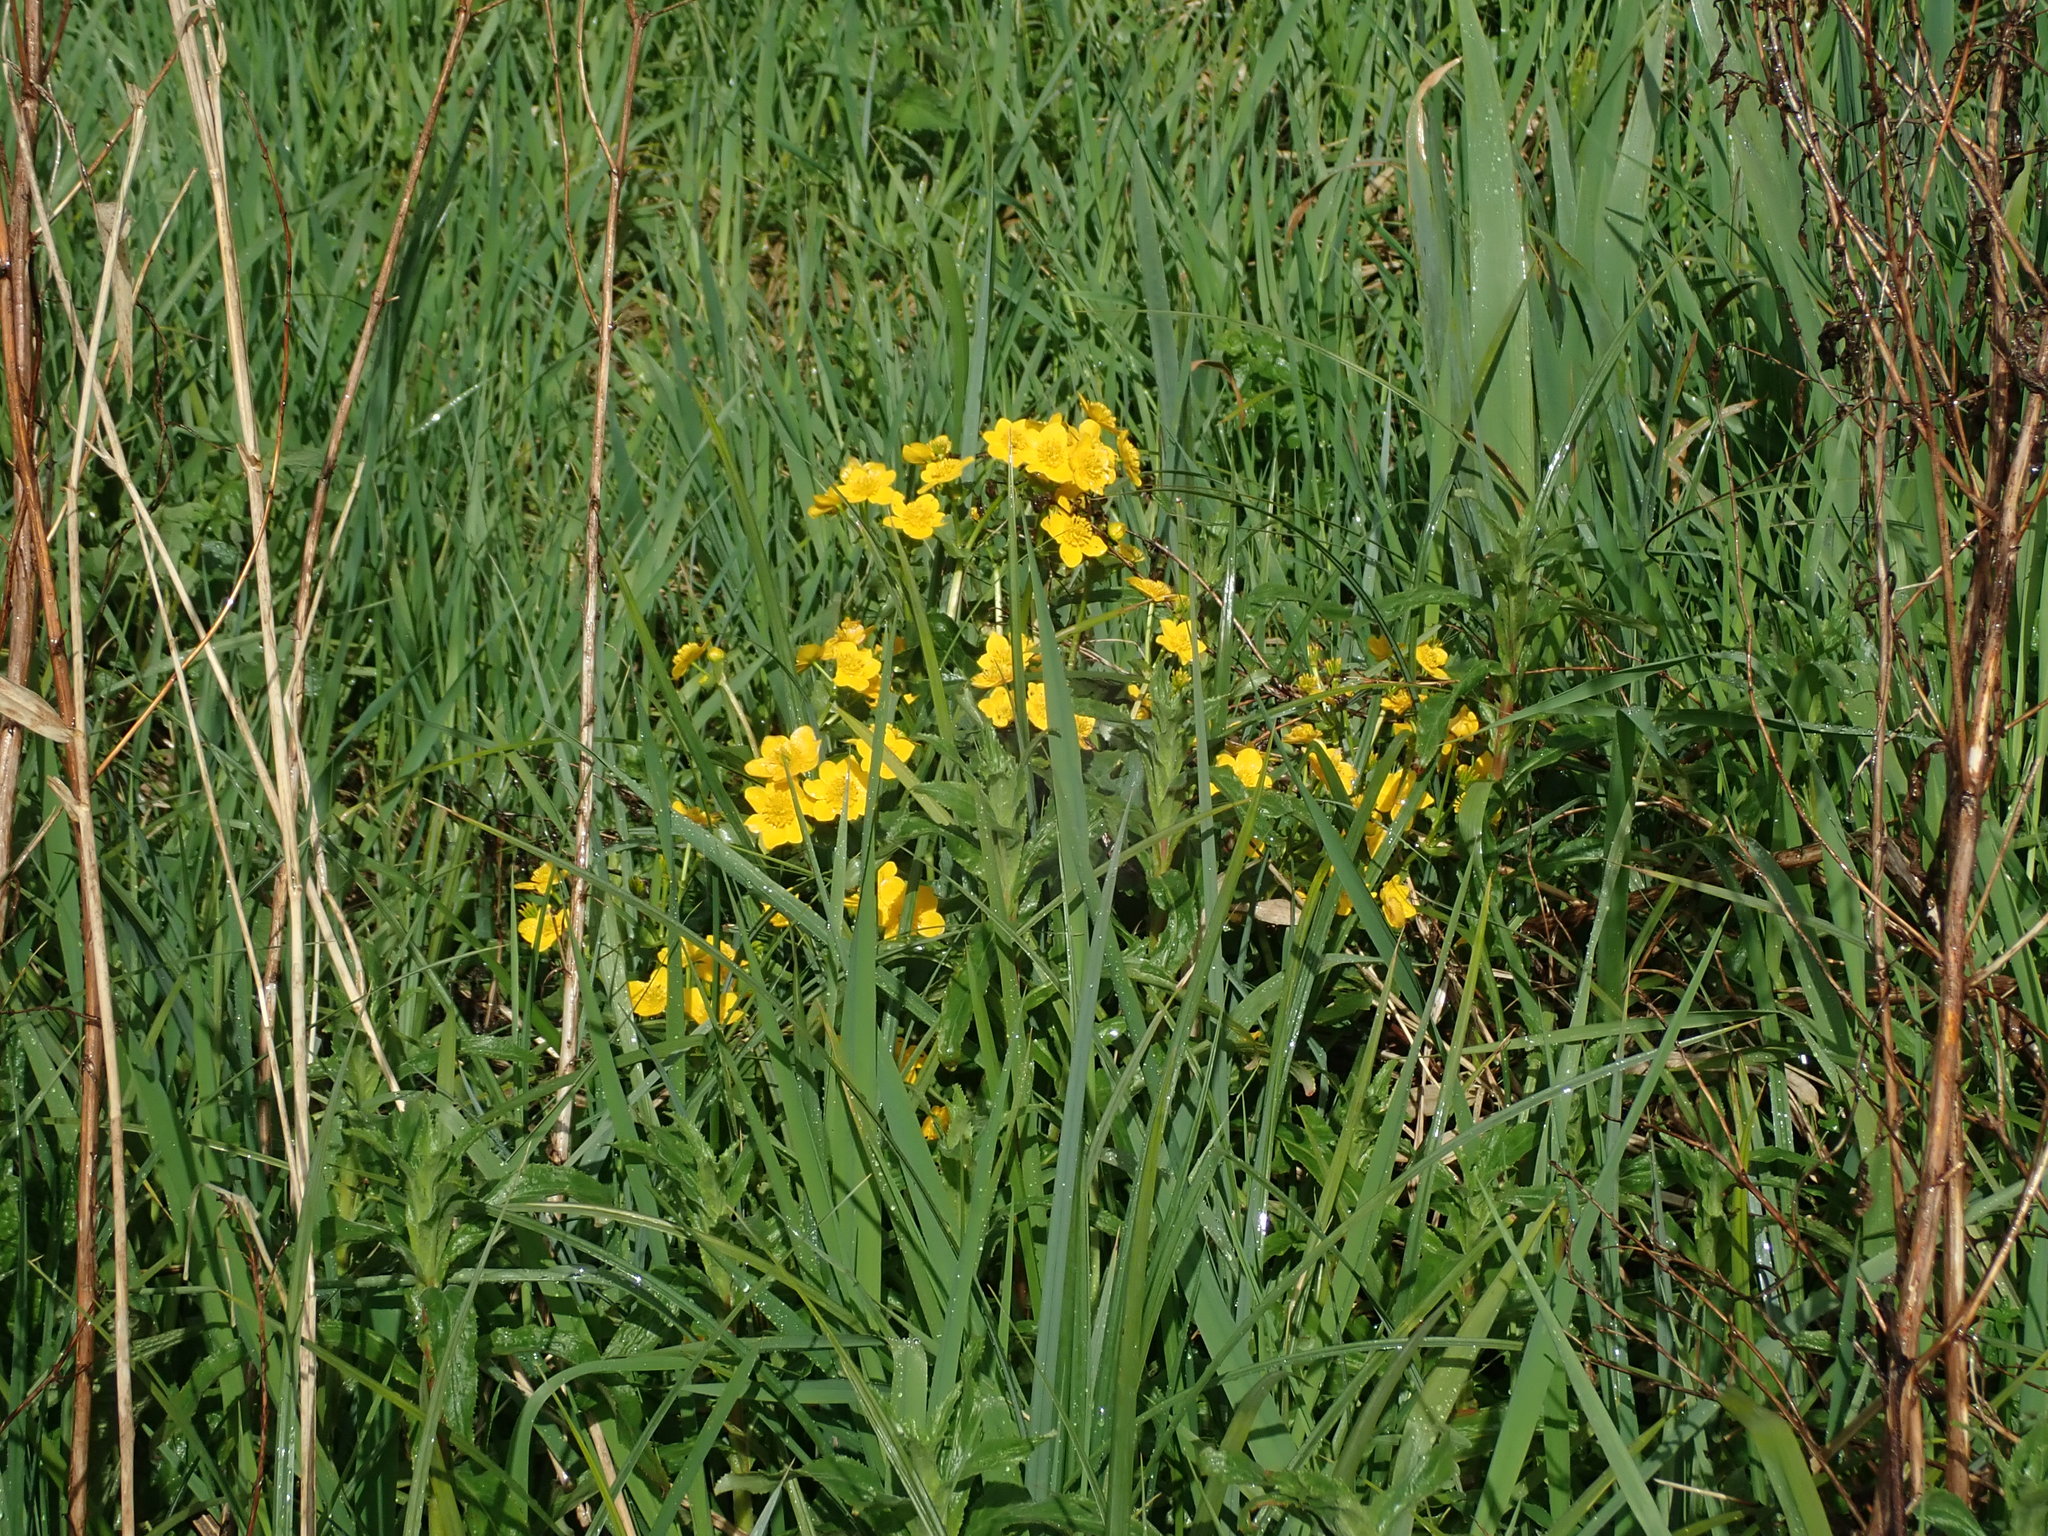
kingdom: Plantae
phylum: Tracheophyta
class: Magnoliopsida
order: Ranunculales
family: Ranunculaceae
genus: Caltha
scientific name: Caltha palustris
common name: Marsh marigold
